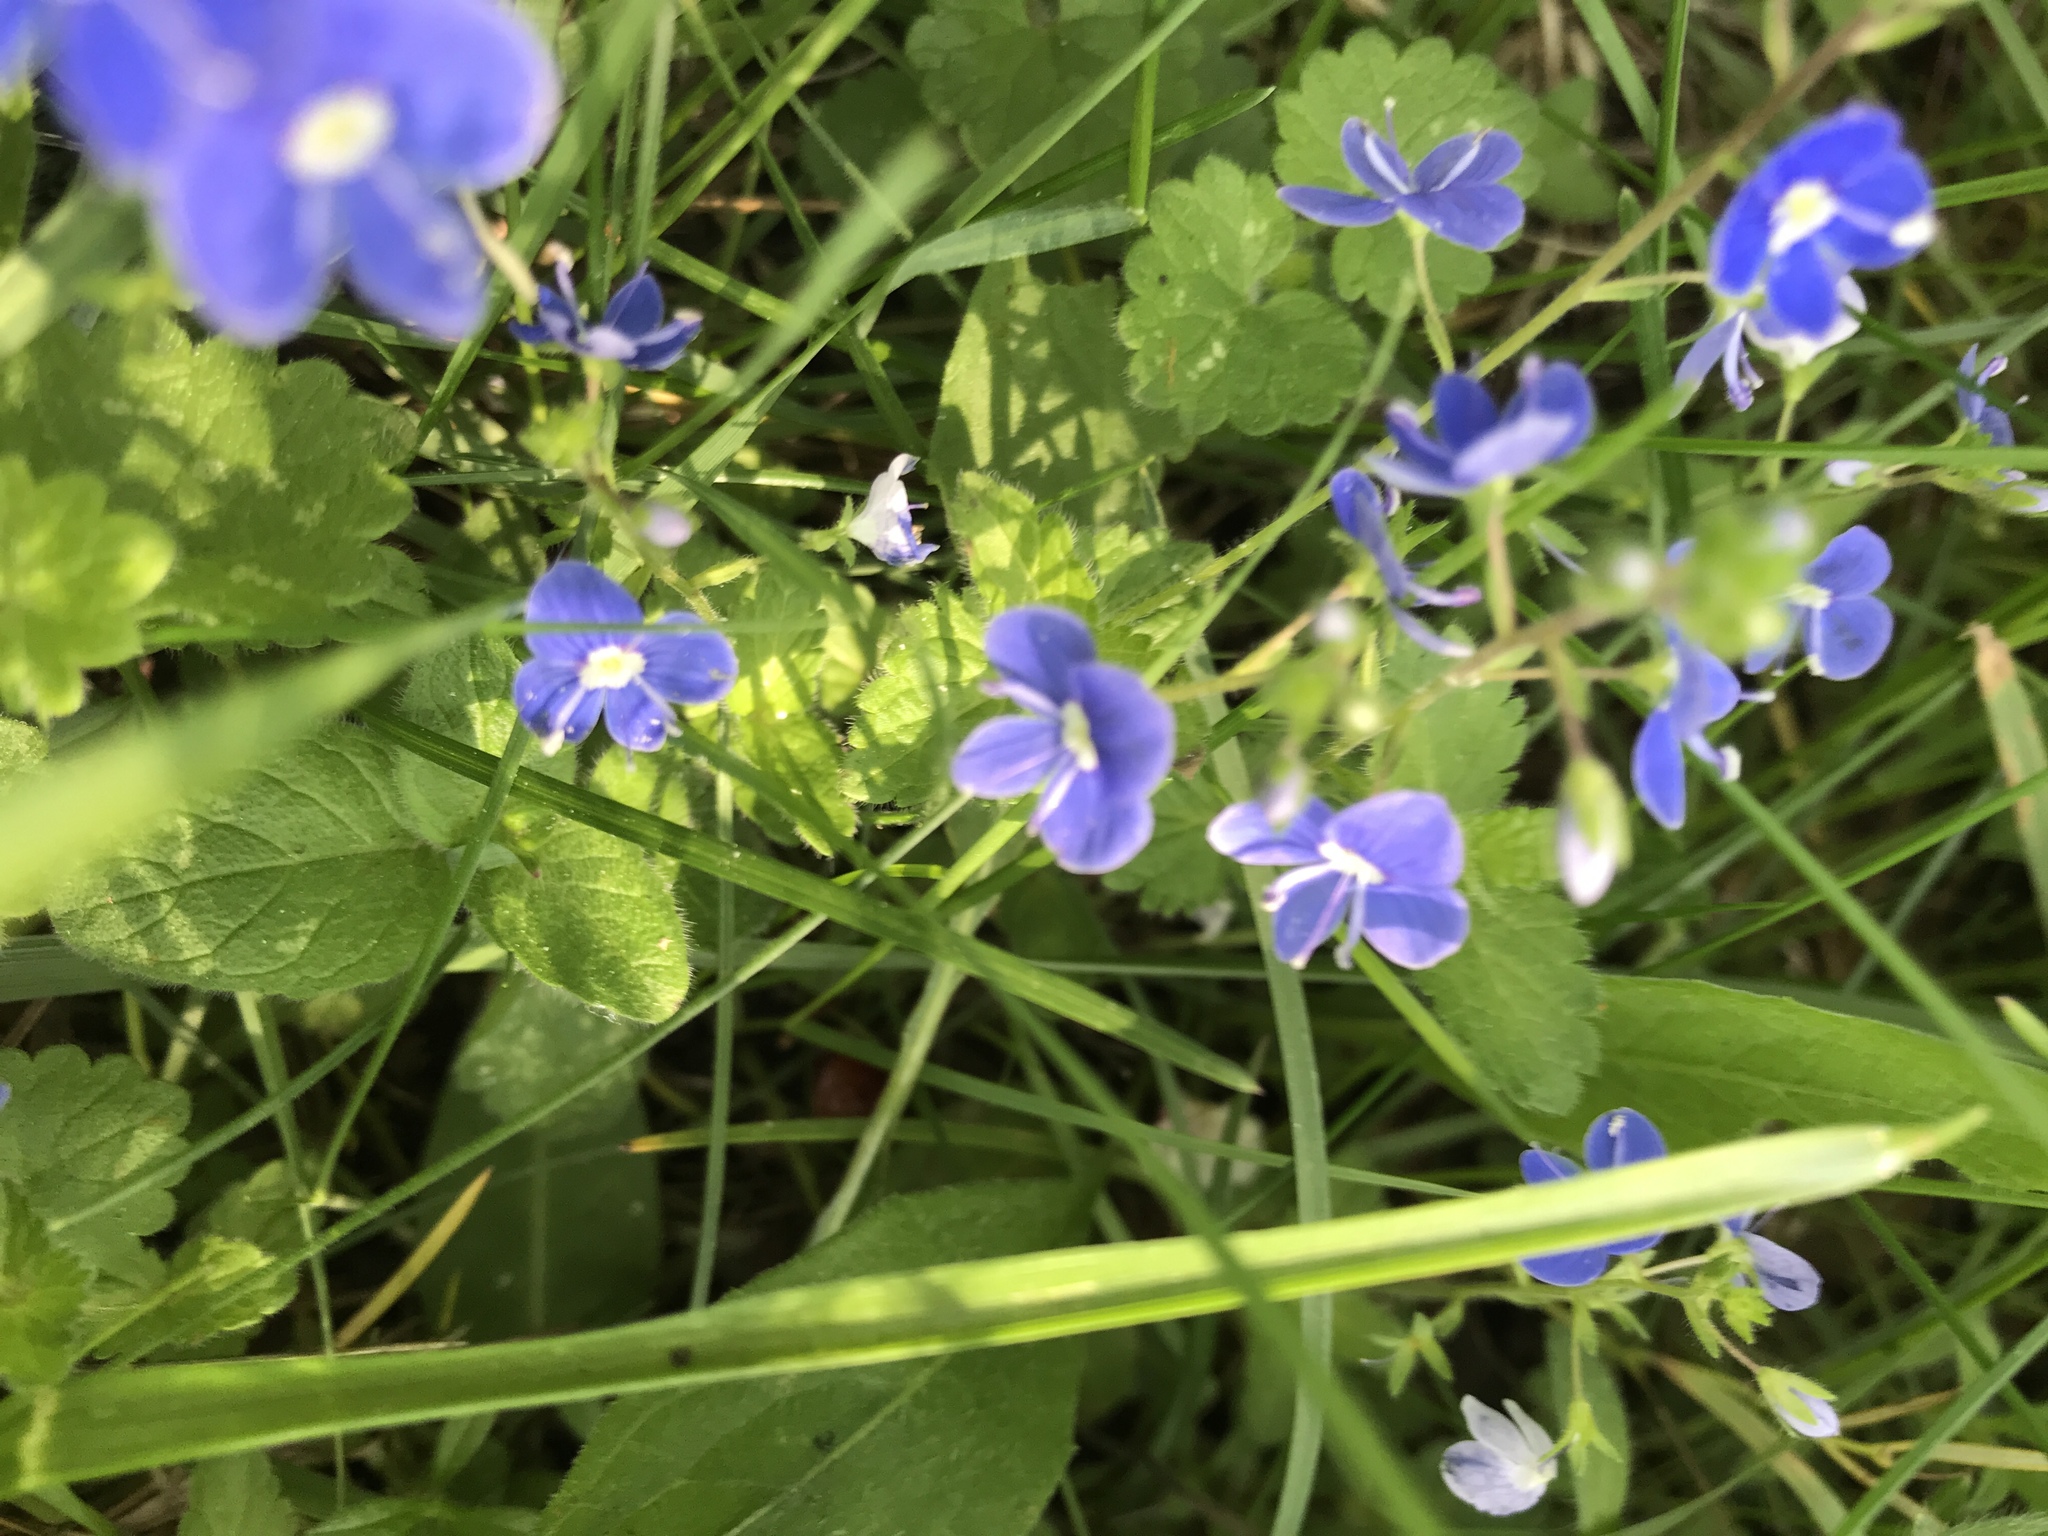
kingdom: Plantae
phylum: Tracheophyta
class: Magnoliopsida
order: Lamiales
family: Plantaginaceae
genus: Veronica
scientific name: Veronica chamaedrys
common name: Germander speedwell
